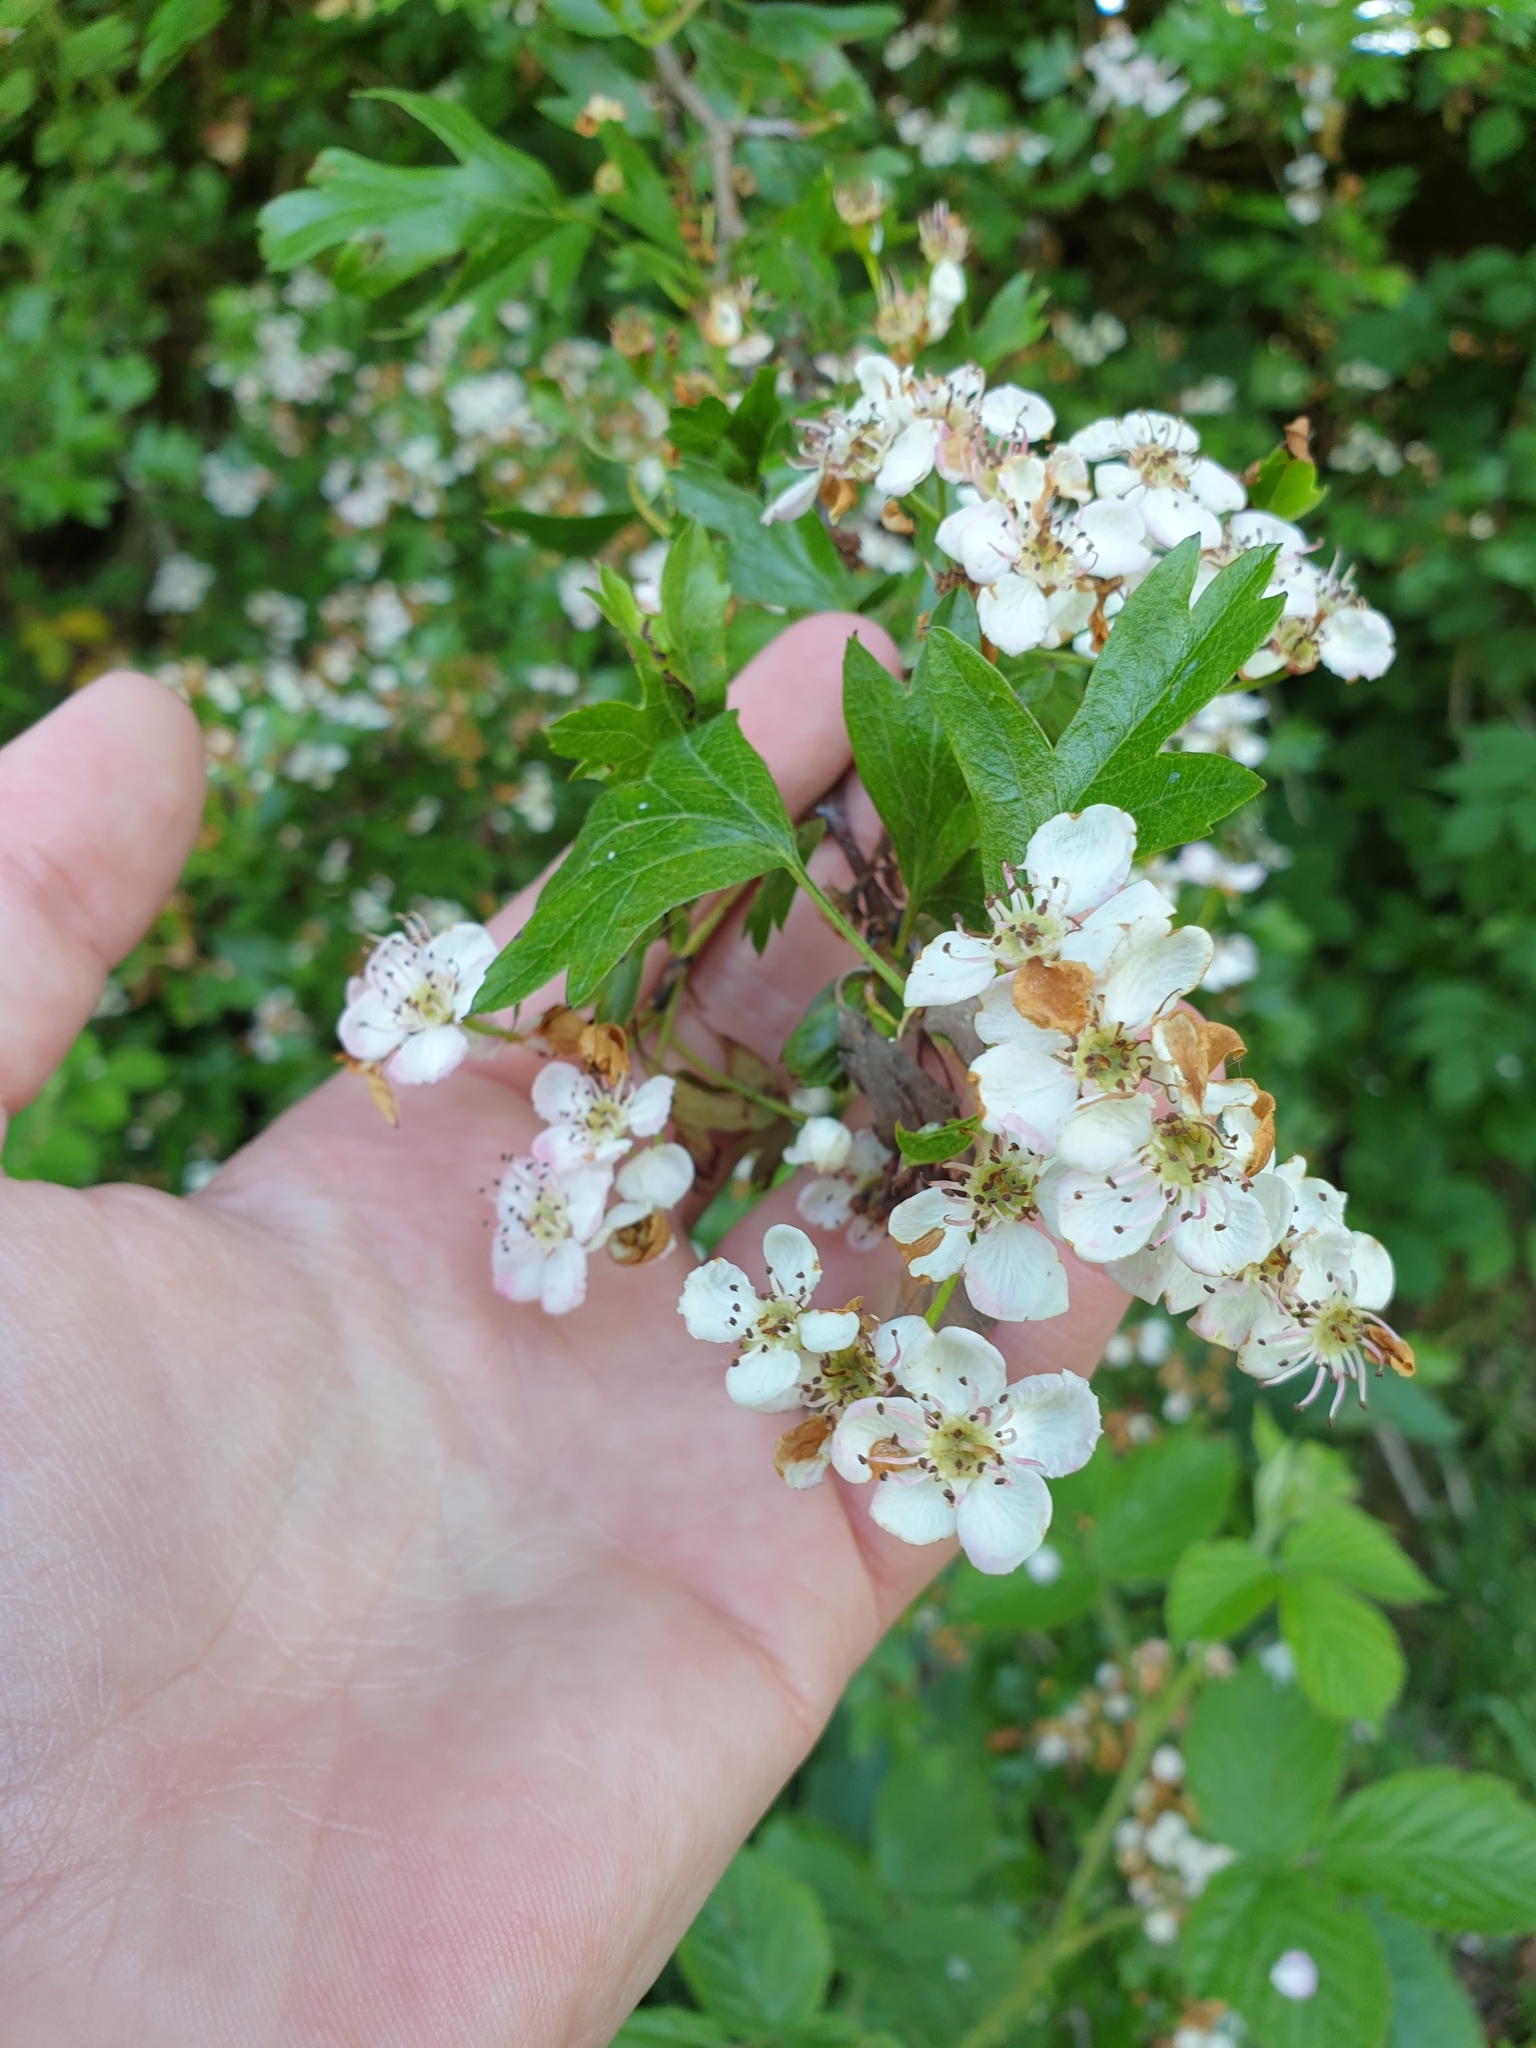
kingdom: Plantae
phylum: Tracheophyta
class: Magnoliopsida
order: Rosales
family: Rosaceae
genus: Crataegus
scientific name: Crataegus monogyna
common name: Hawthorn
